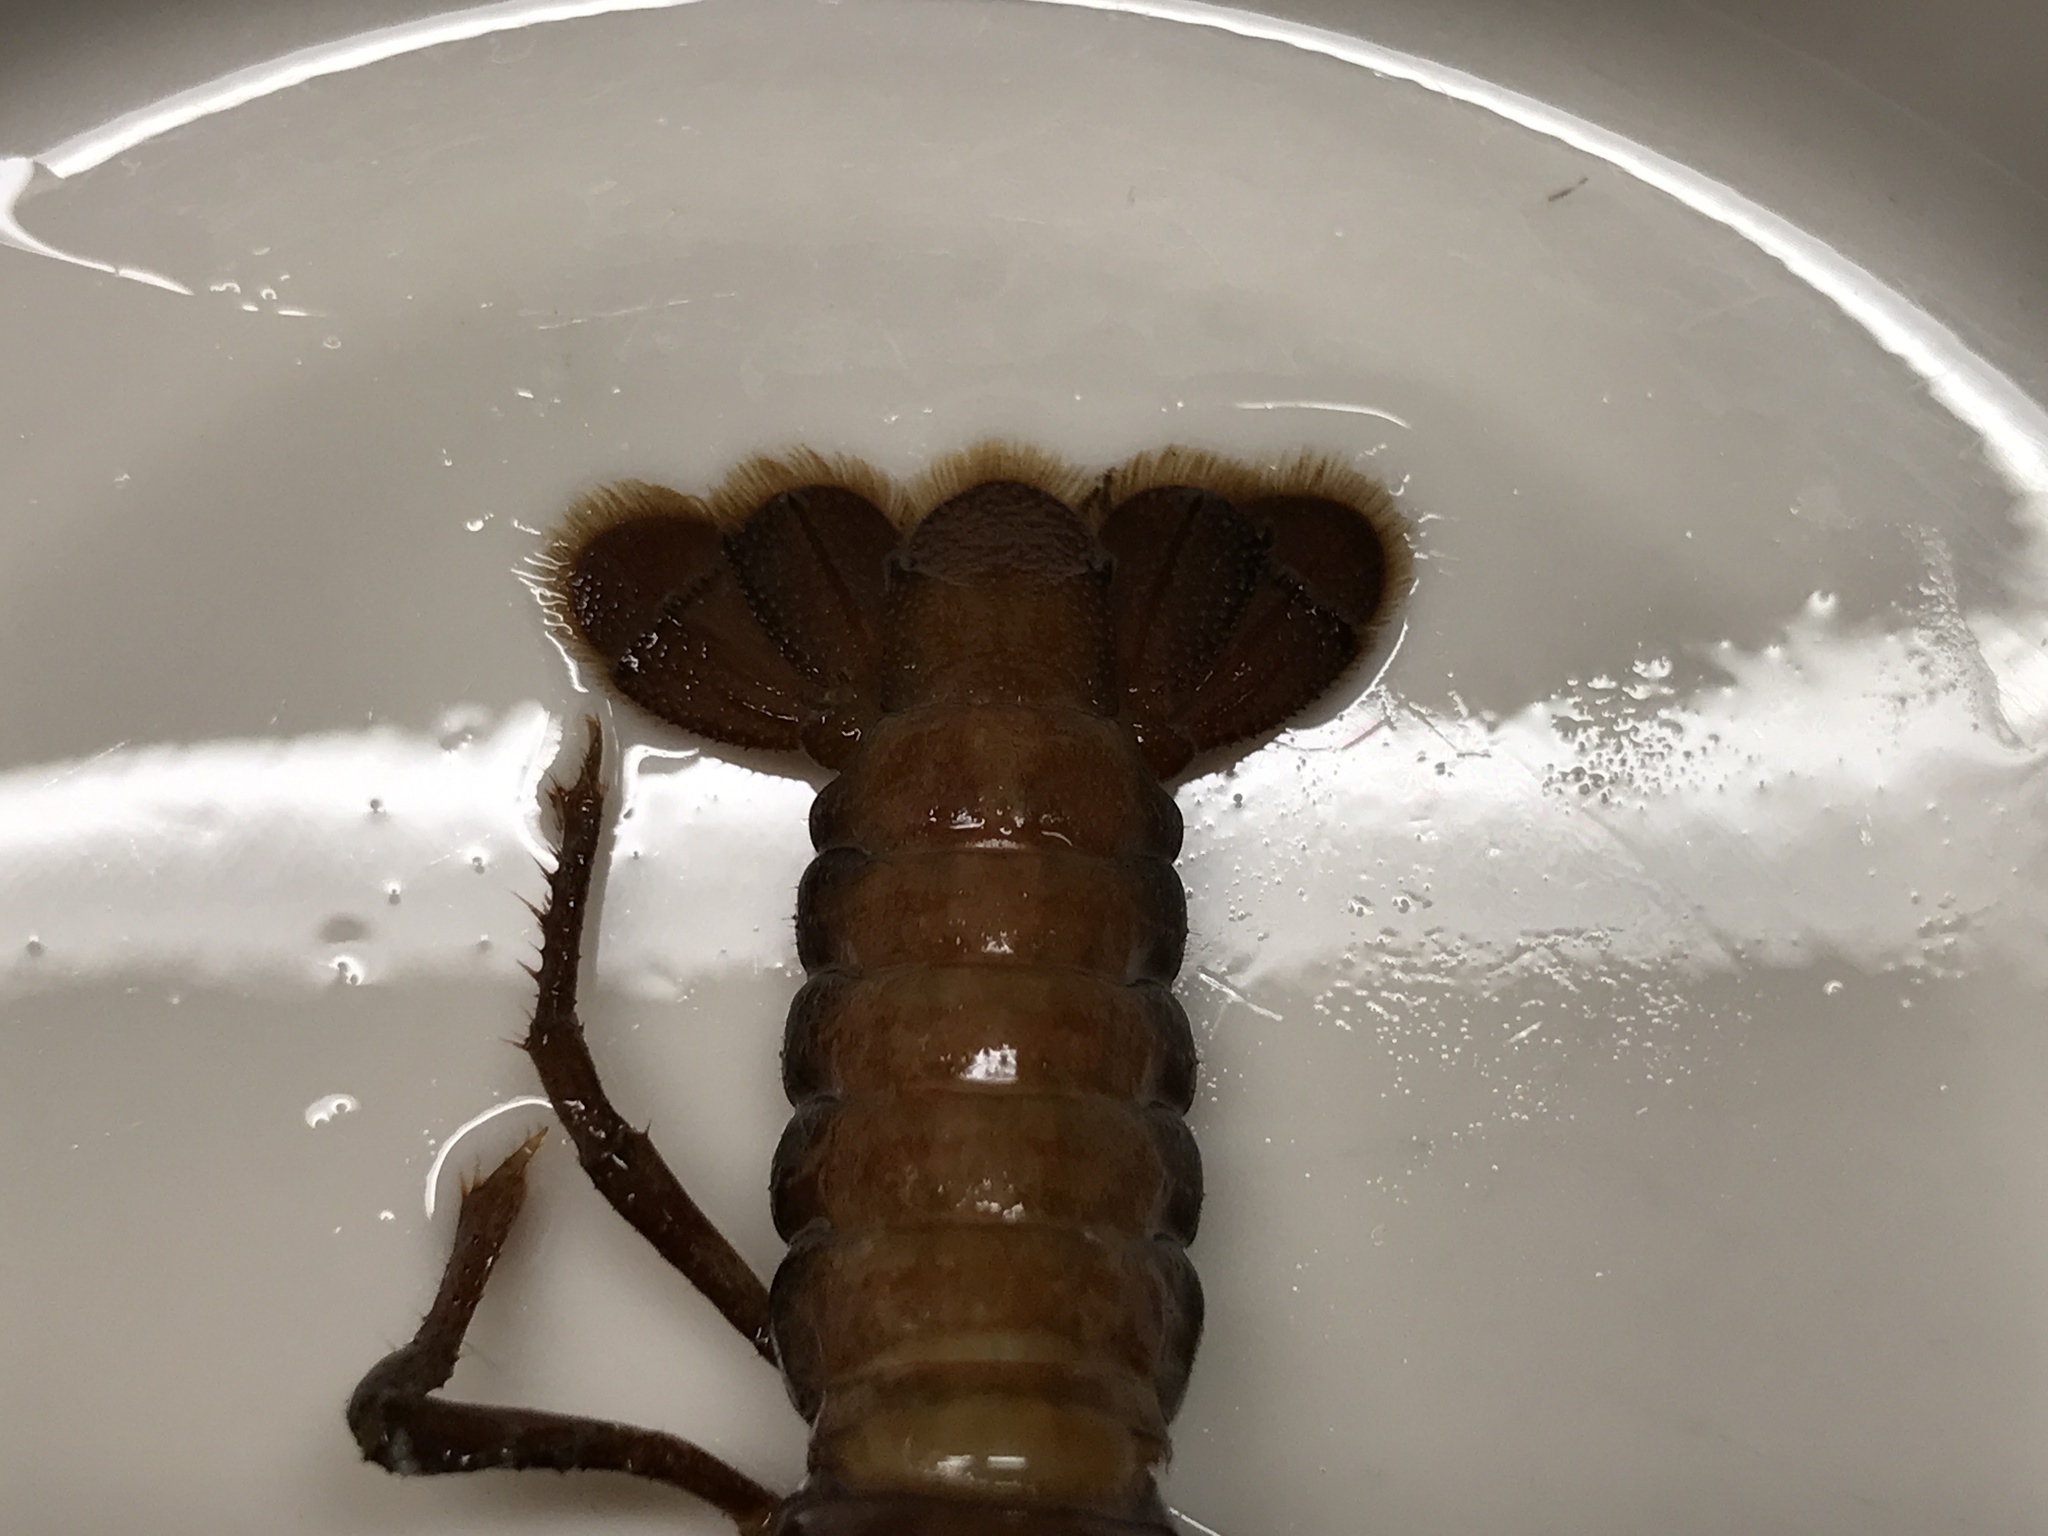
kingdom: Animalia
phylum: Arthropoda
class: Malacostraca
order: Decapoda
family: Cambaridae
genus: Creaserinus
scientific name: Creaserinus fodiens
